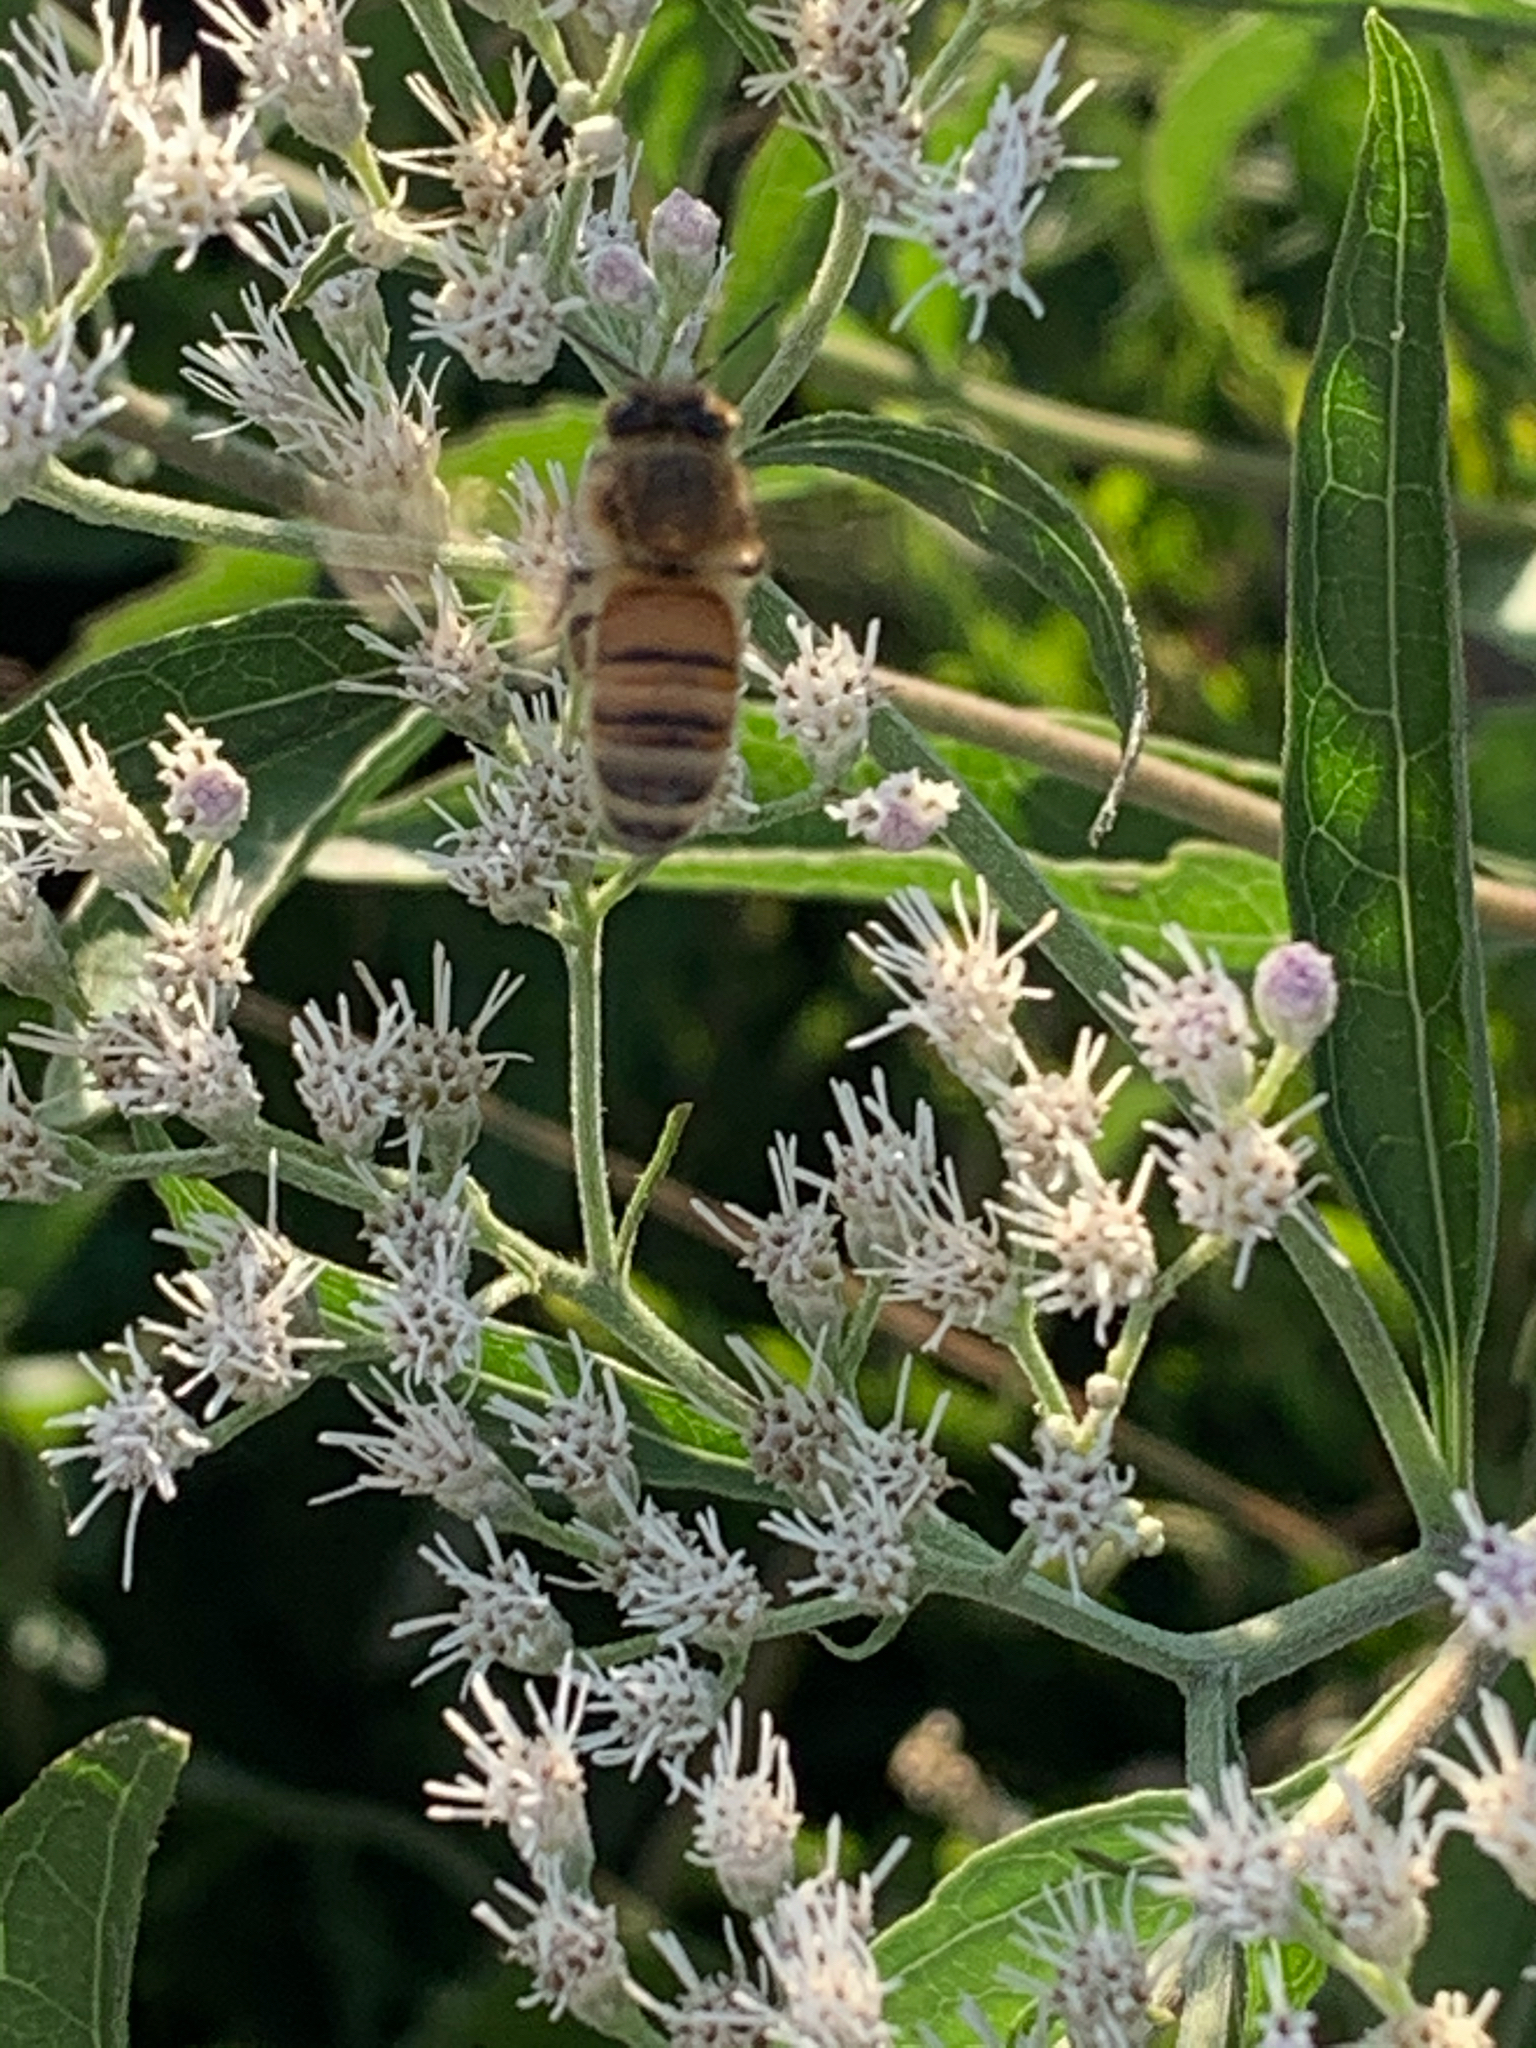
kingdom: Animalia
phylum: Arthropoda
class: Insecta
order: Hymenoptera
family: Apidae
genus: Apis
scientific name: Apis mellifera
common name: Honey bee
